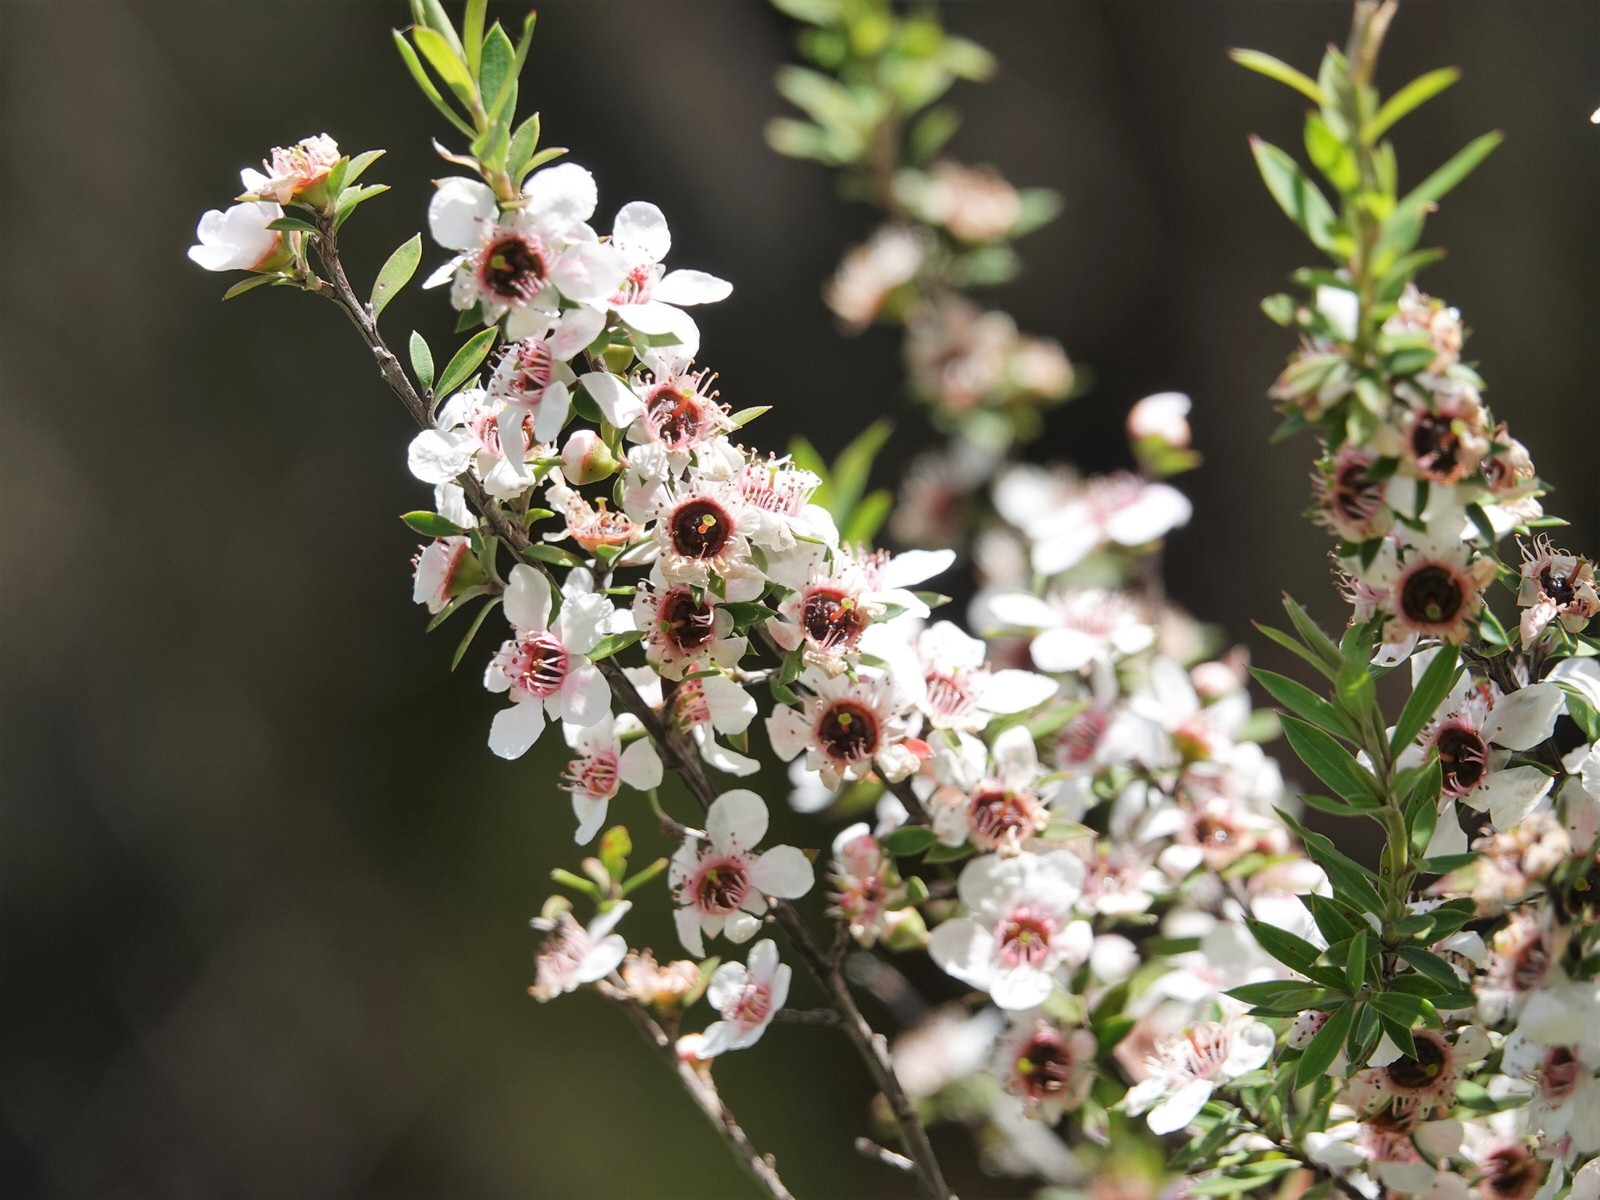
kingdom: Plantae
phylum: Tracheophyta
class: Magnoliopsida
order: Myrtales
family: Myrtaceae
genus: Leptospermum
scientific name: Leptospermum scoparium
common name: Broom tea-tree
